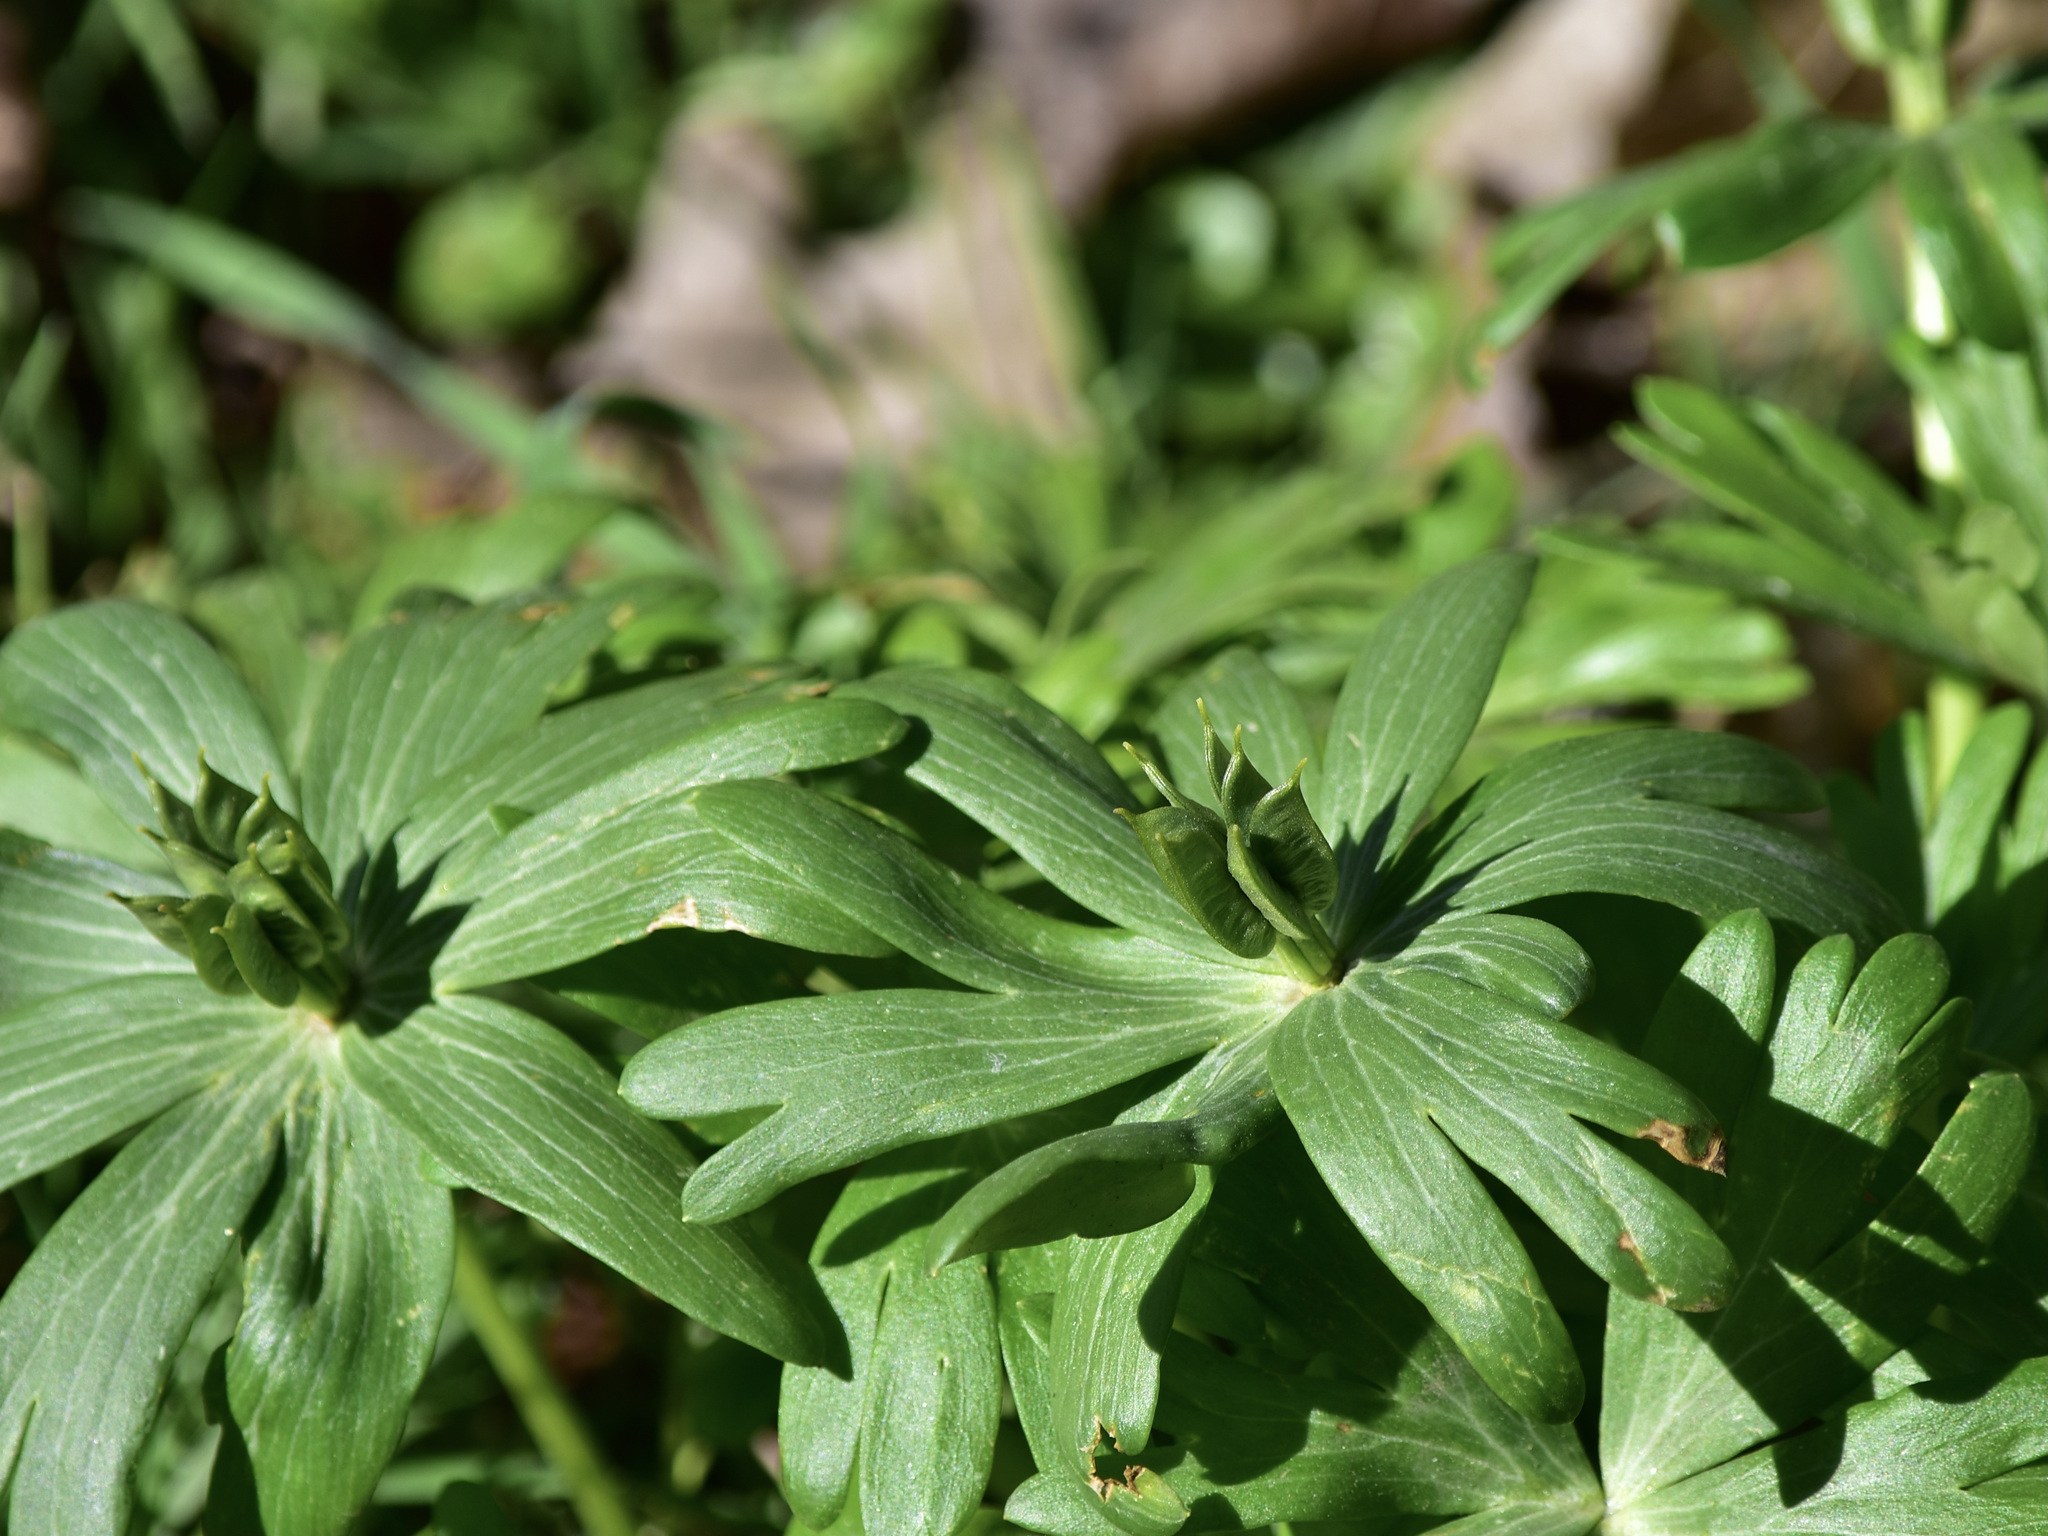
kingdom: Plantae
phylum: Tracheophyta
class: Magnoliopsida
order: Ranunculales
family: Ranunculaceae
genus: Eranthis
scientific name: Eranthis hyemalis
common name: Winter aconite
